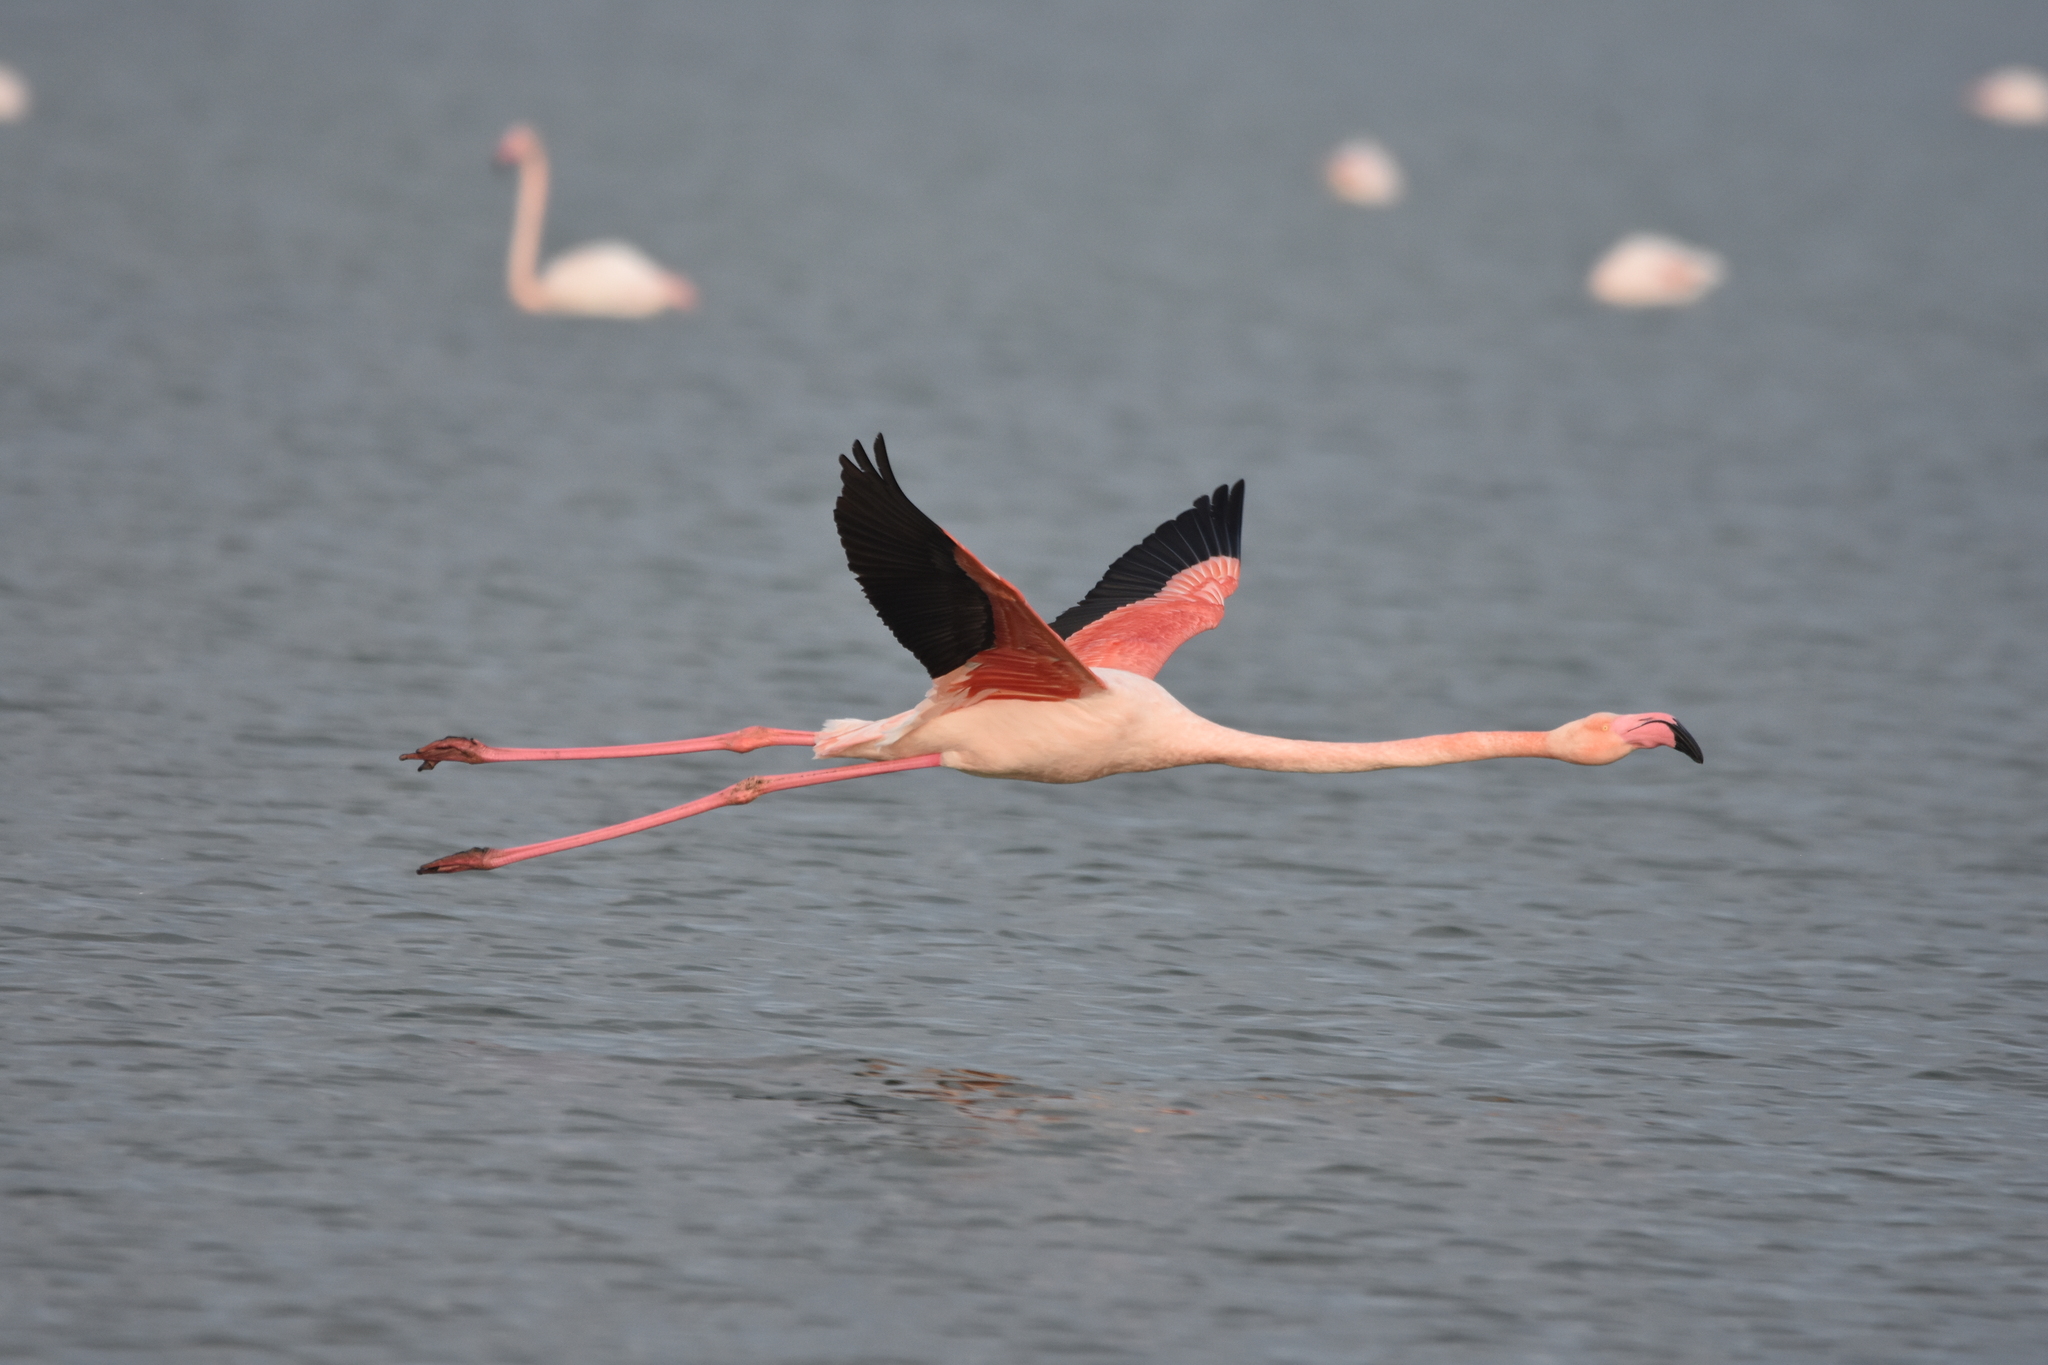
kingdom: Animalia
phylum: Chordata
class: Aves
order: Phoenicopteriformes
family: Phoenicopteridae
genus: Phoenicopterus
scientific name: Phoenicopterus roseus
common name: Greater flamingo
